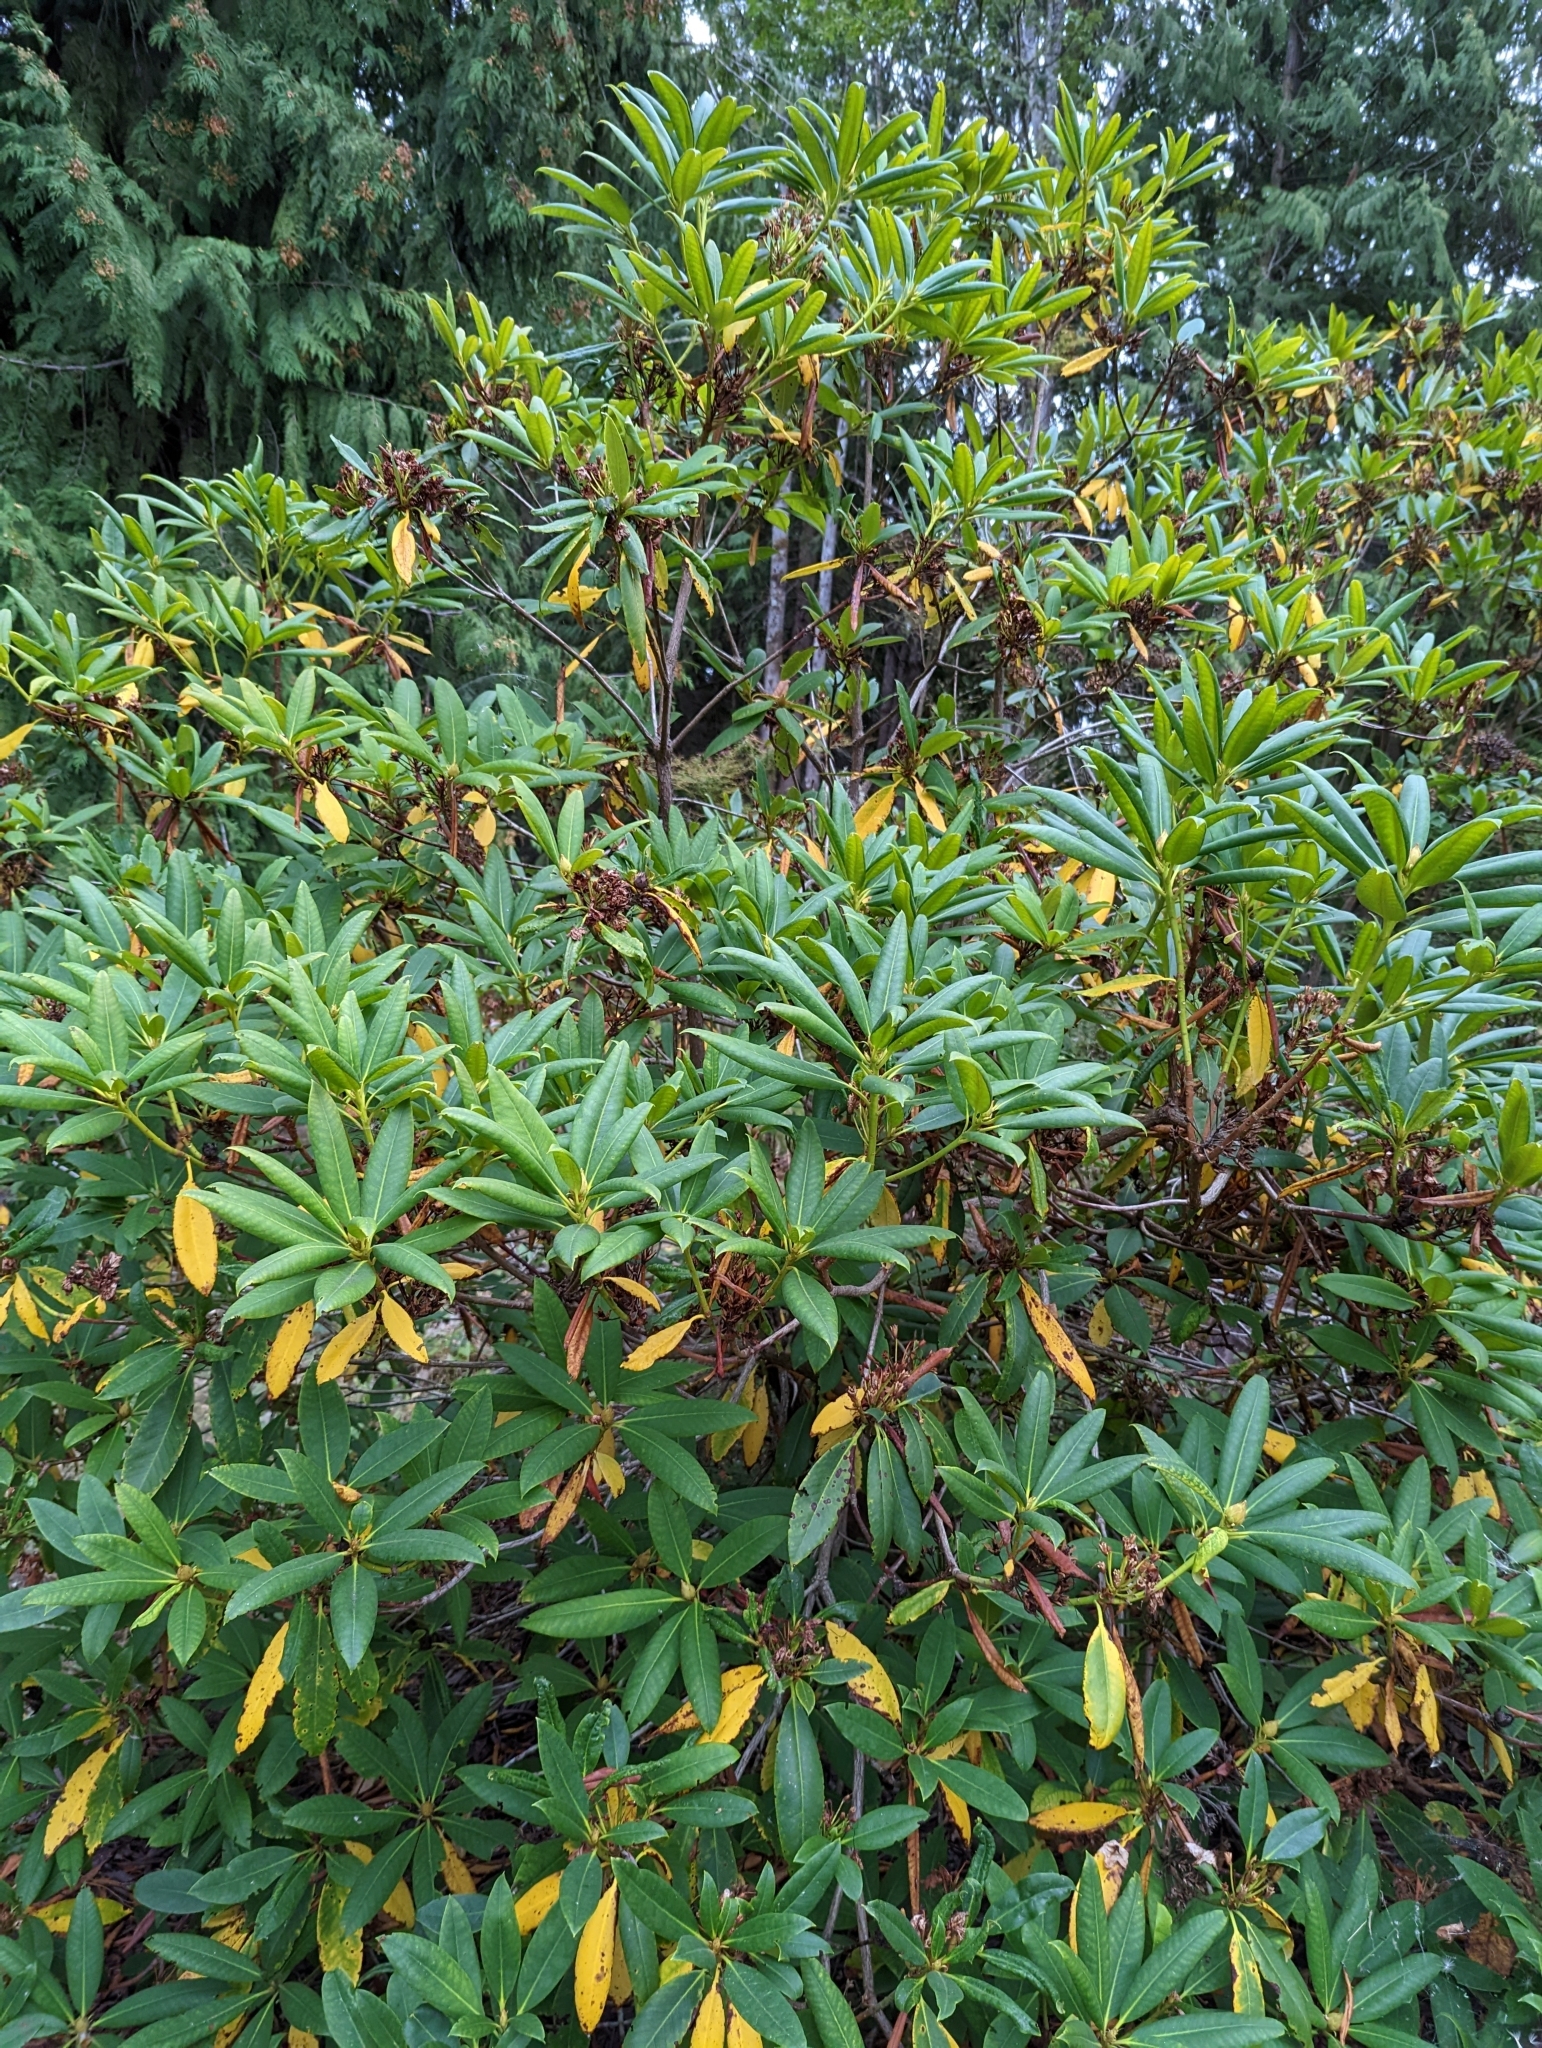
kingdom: Plantae
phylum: Tracheophyta
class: Magnoliopsida
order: Ericales
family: Ericaceae
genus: Rhododendron
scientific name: Rhododendron macrophyllum
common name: California rose bay
